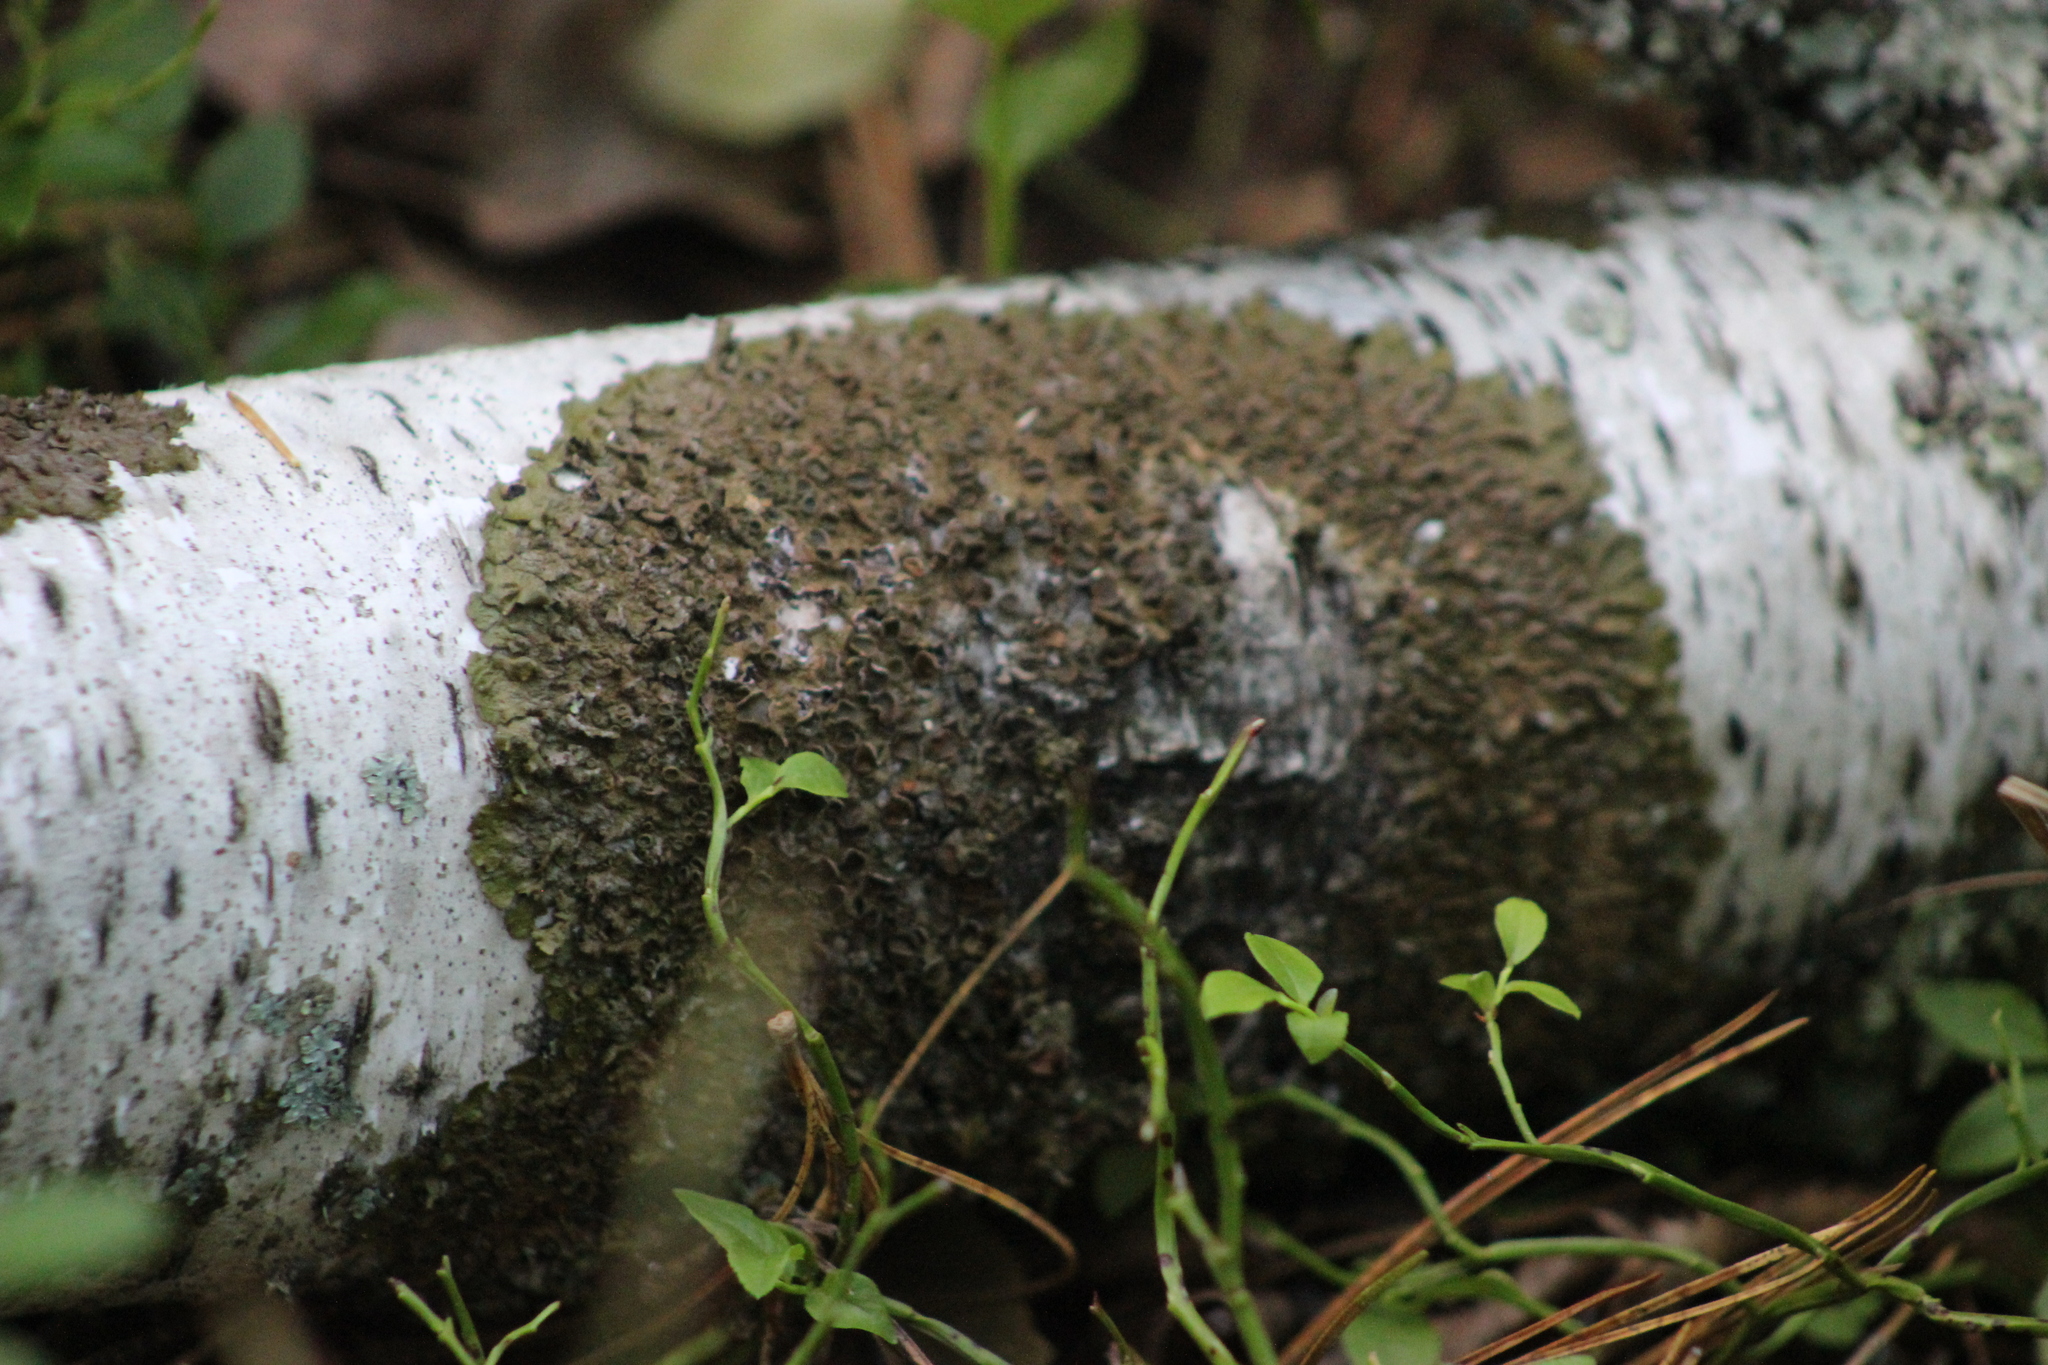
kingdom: Fungi
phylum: Ascomycota
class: Lecanoromycetes
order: Lecanorales
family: Parmeliaceae
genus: Melanohalea
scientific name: Melanohalea olivacea
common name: Spotted camouflage lichen
